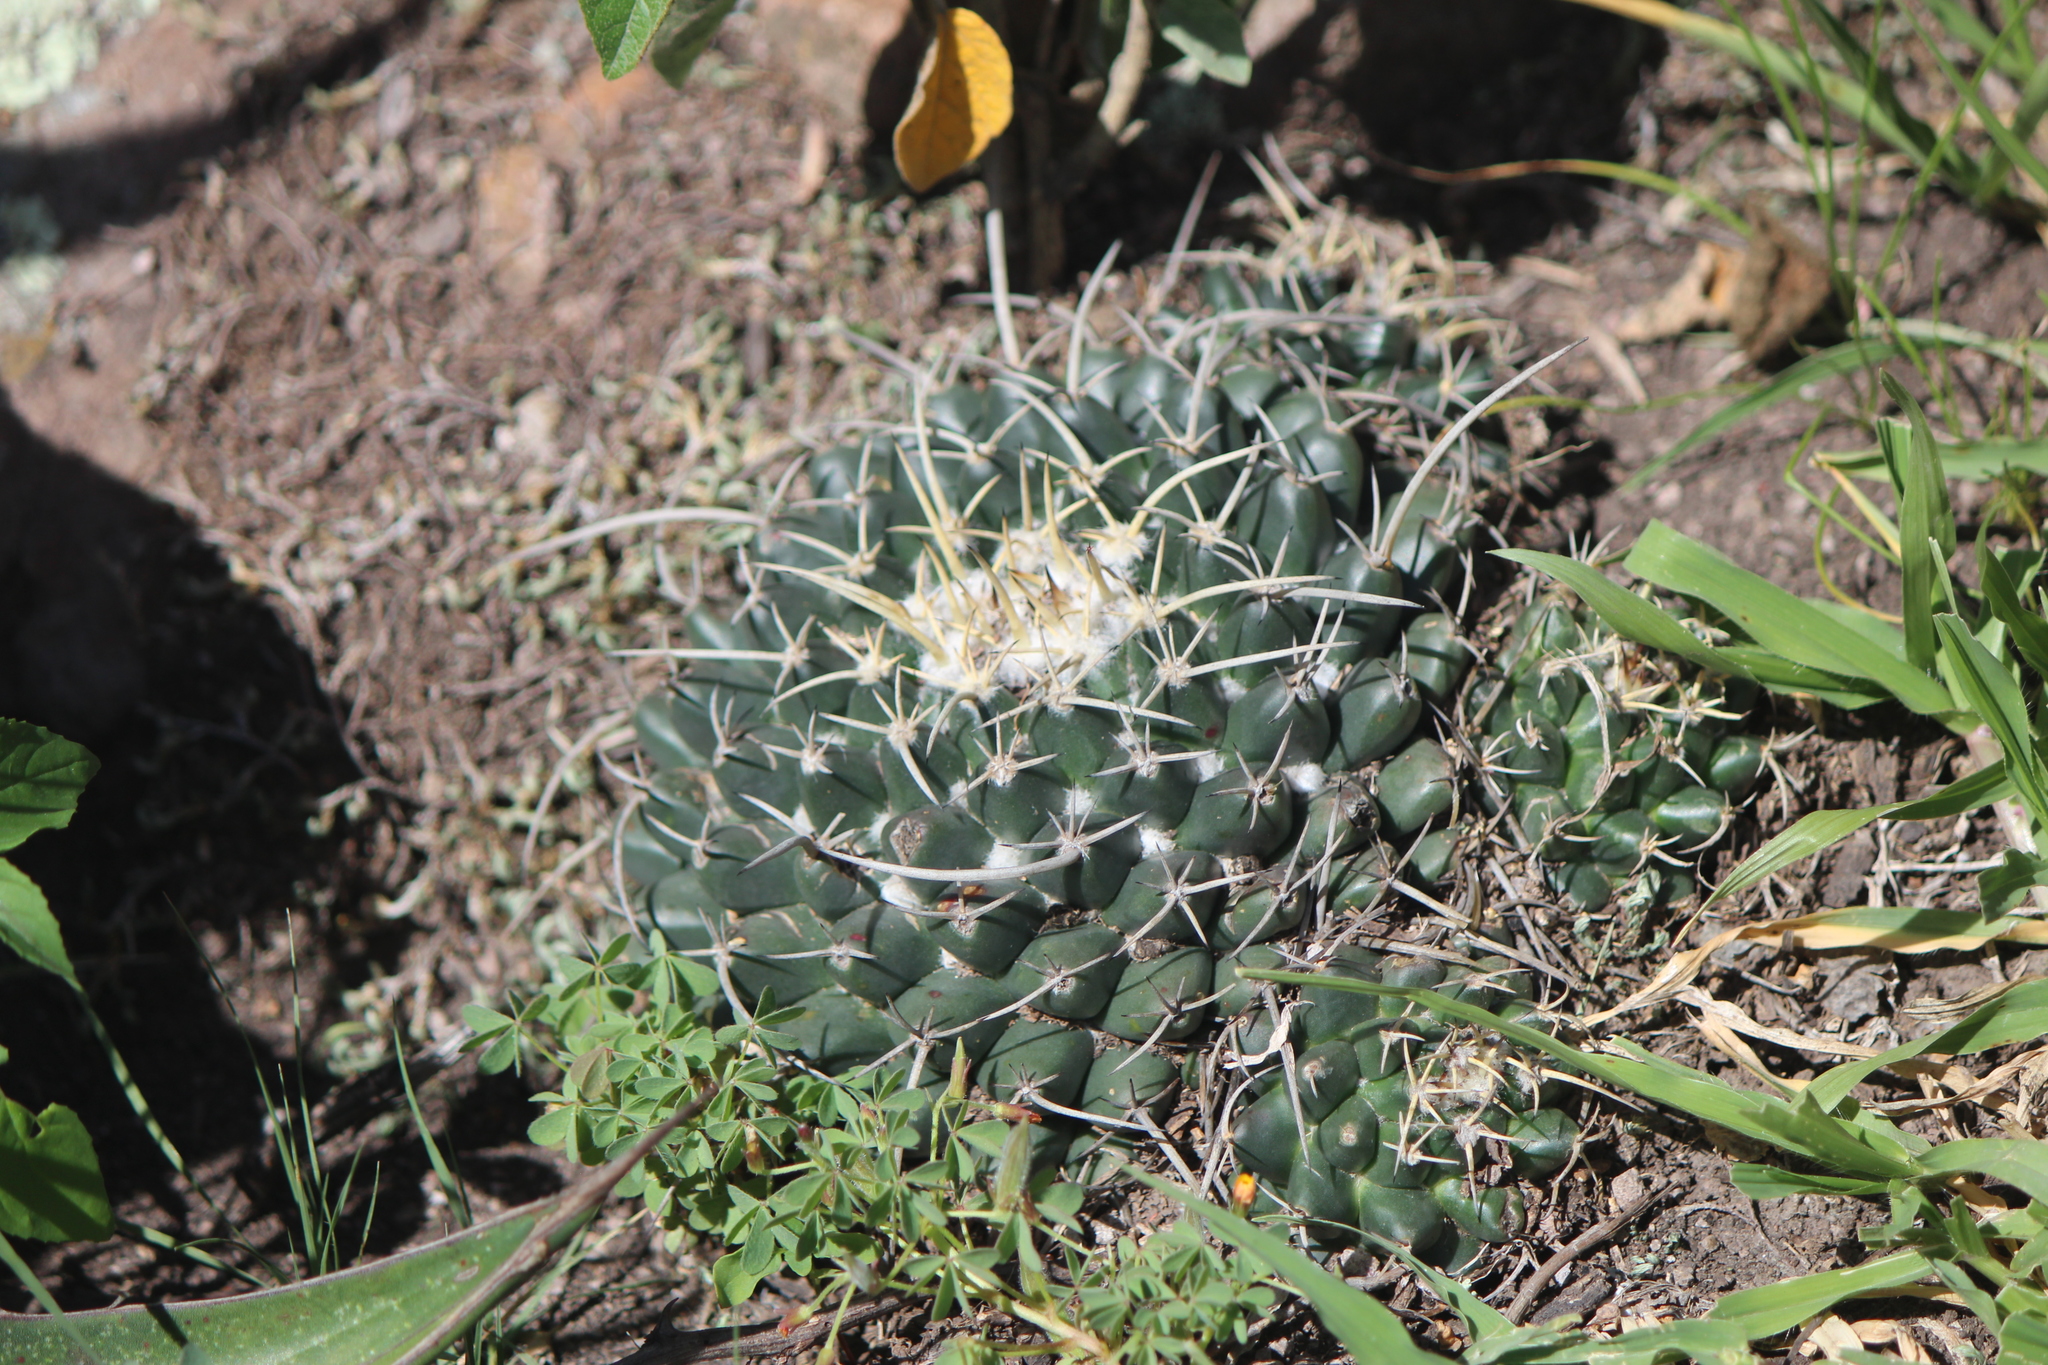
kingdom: Plantae
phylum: Tracheophyta
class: Magnoliopsida
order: Caryophyllales
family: Cactaceae
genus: Mammillaria
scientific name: Mammillaria magnimamma
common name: Mexican pincushion
